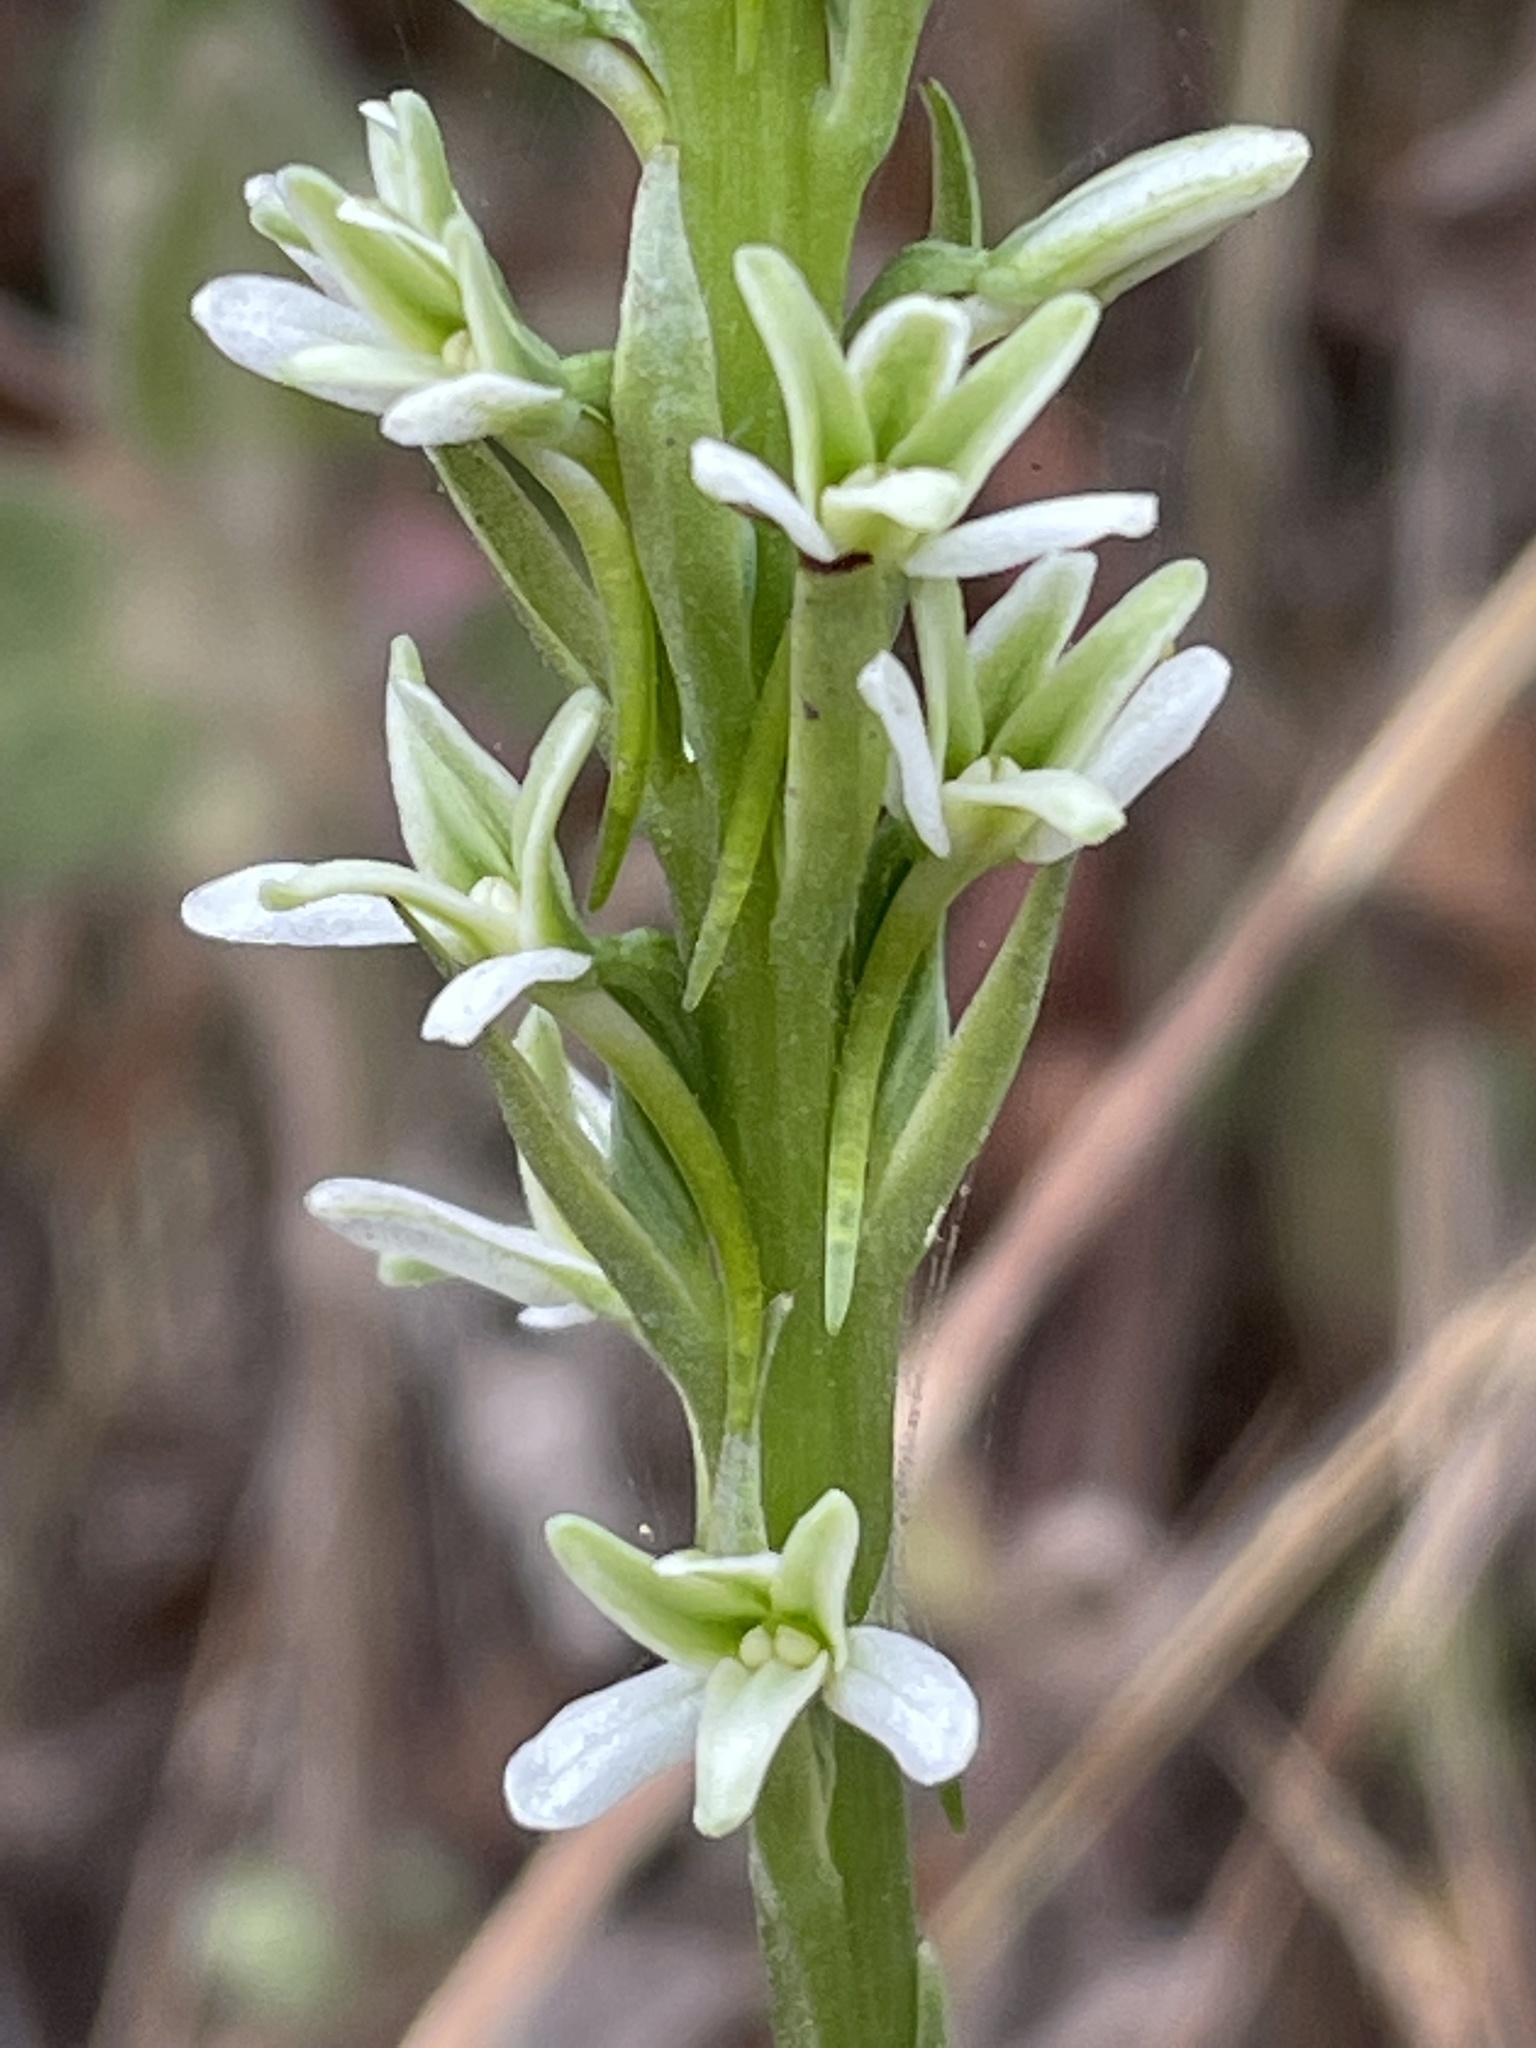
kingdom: Plantae
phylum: Tracheophyta
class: Liliopsida
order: Asparagales
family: Orchidaceae
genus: Platanthera
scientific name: Platanthera elegans
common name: Coast piperia
